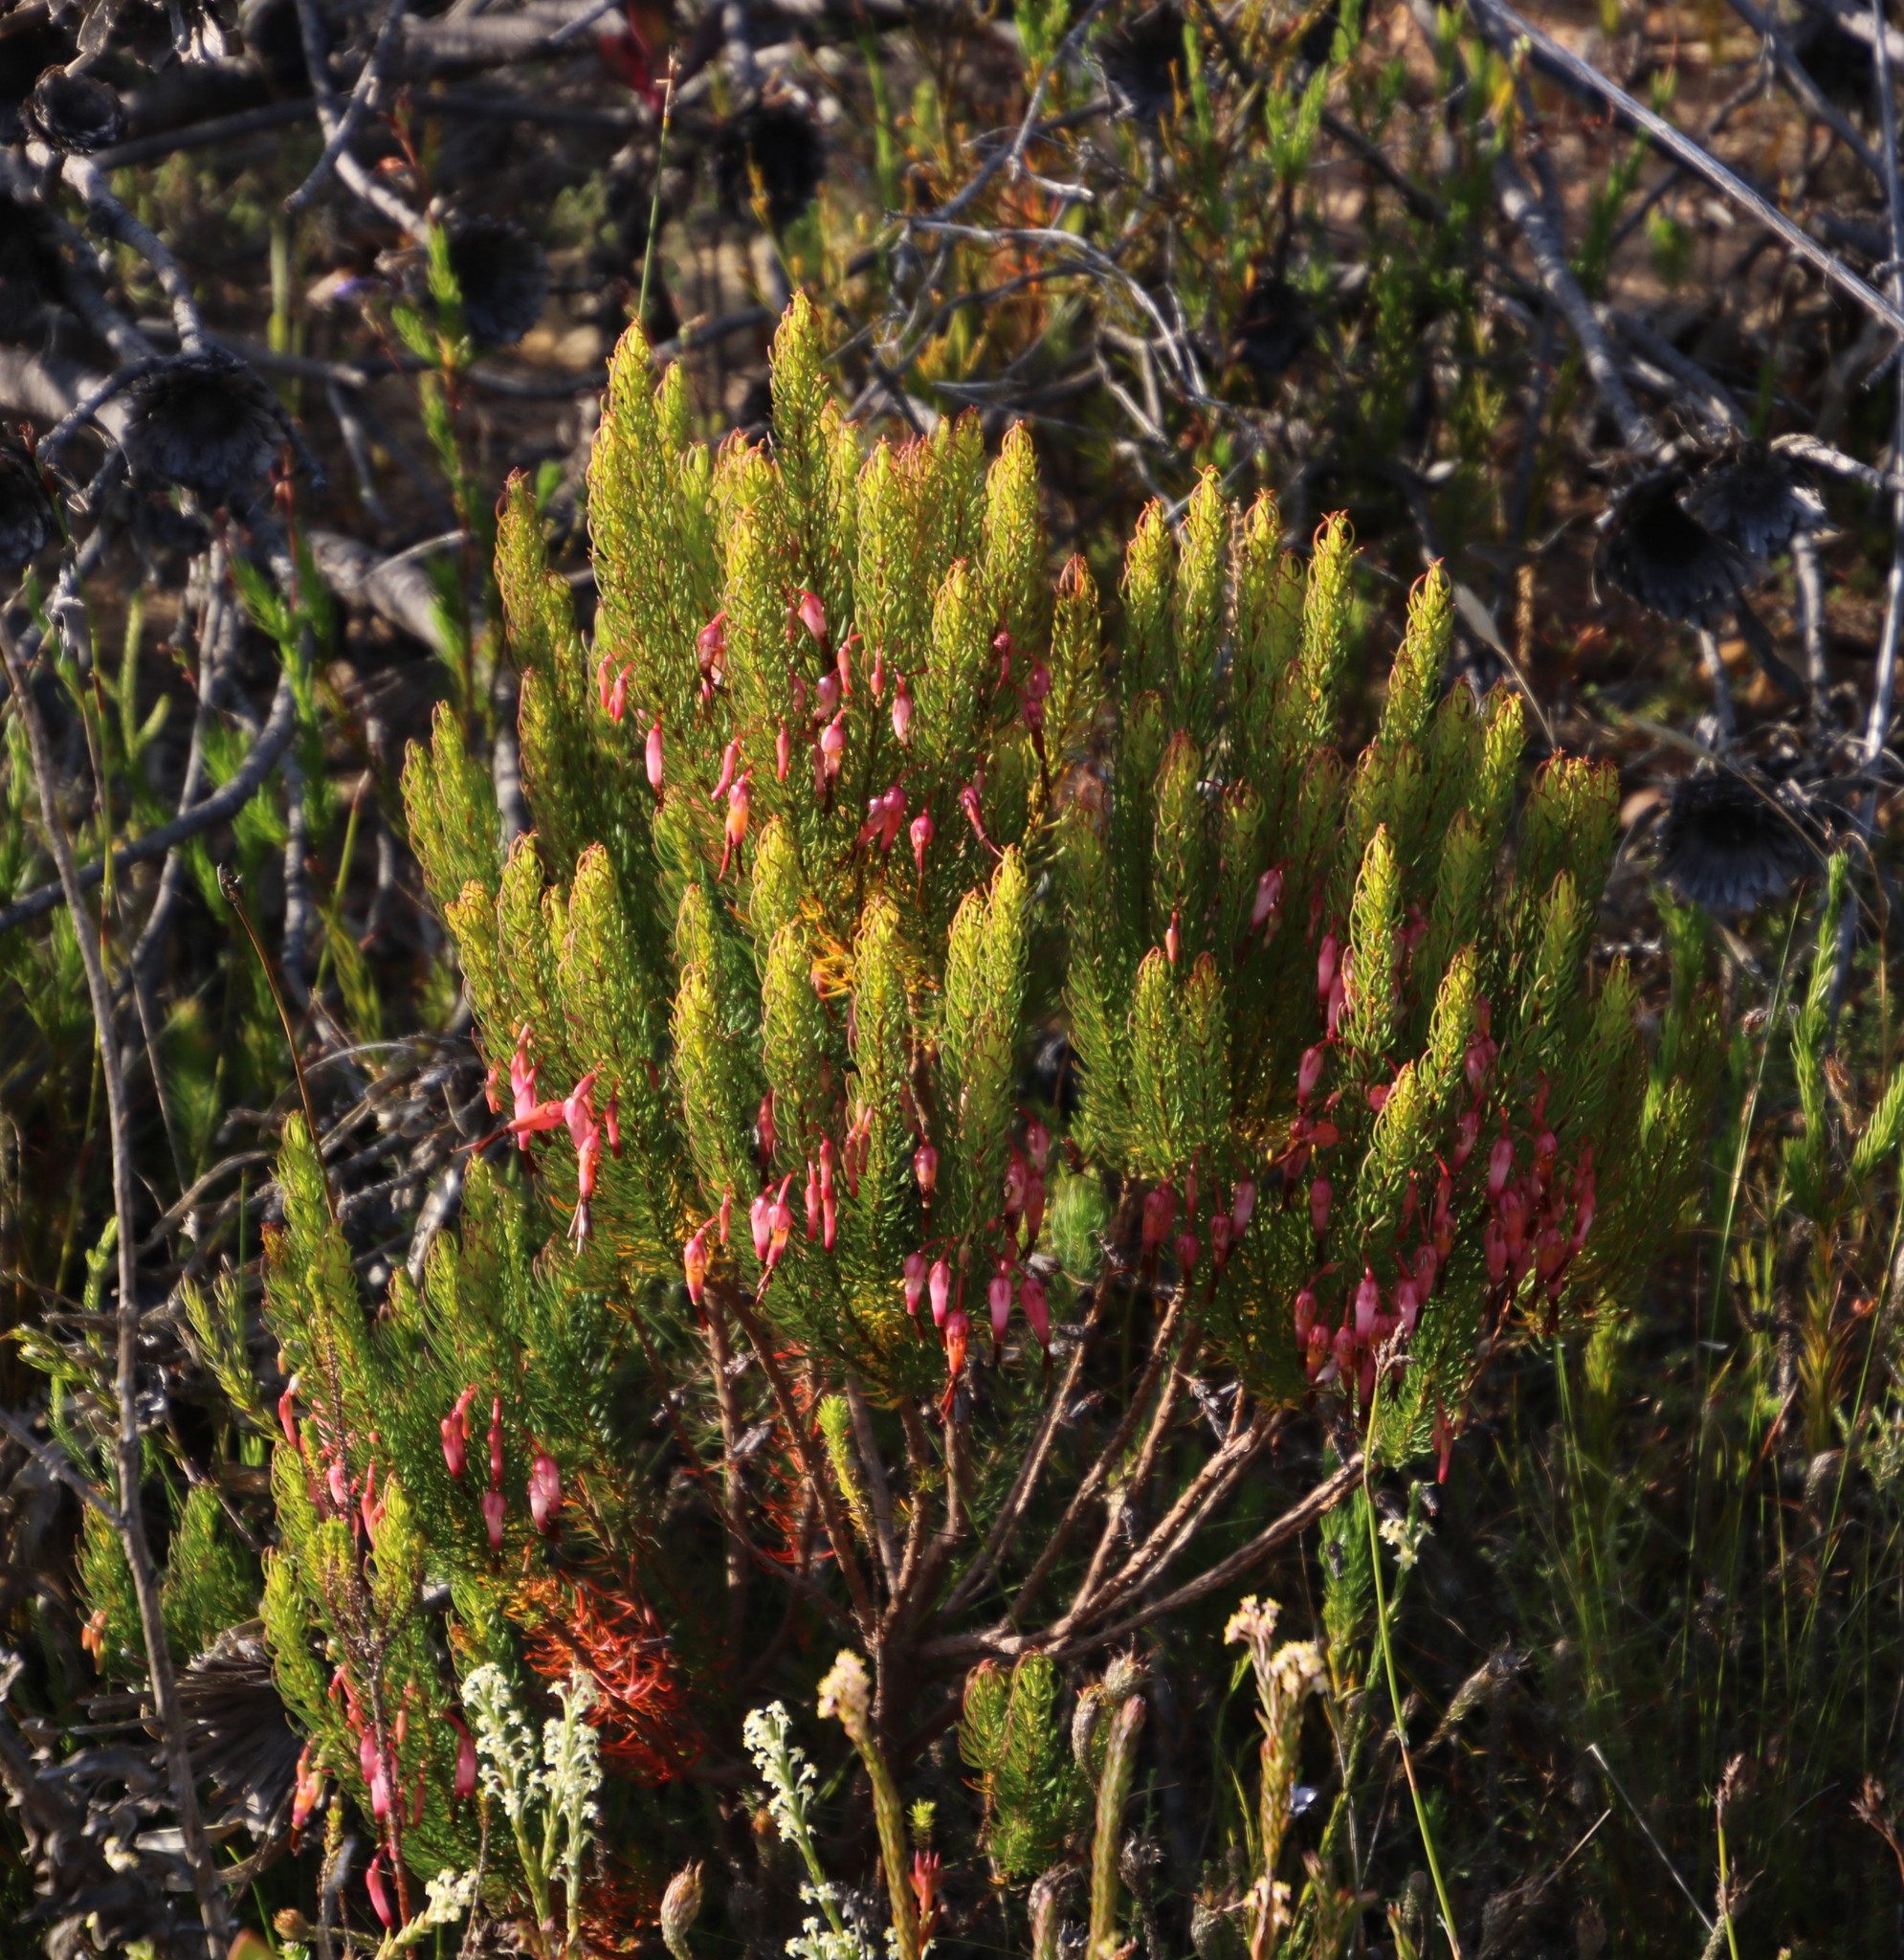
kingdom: Plantae
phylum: Tracheophyta
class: Magnoliopsida
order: Ericales
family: Ericaceae
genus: Erica
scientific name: Erica plukenetii
